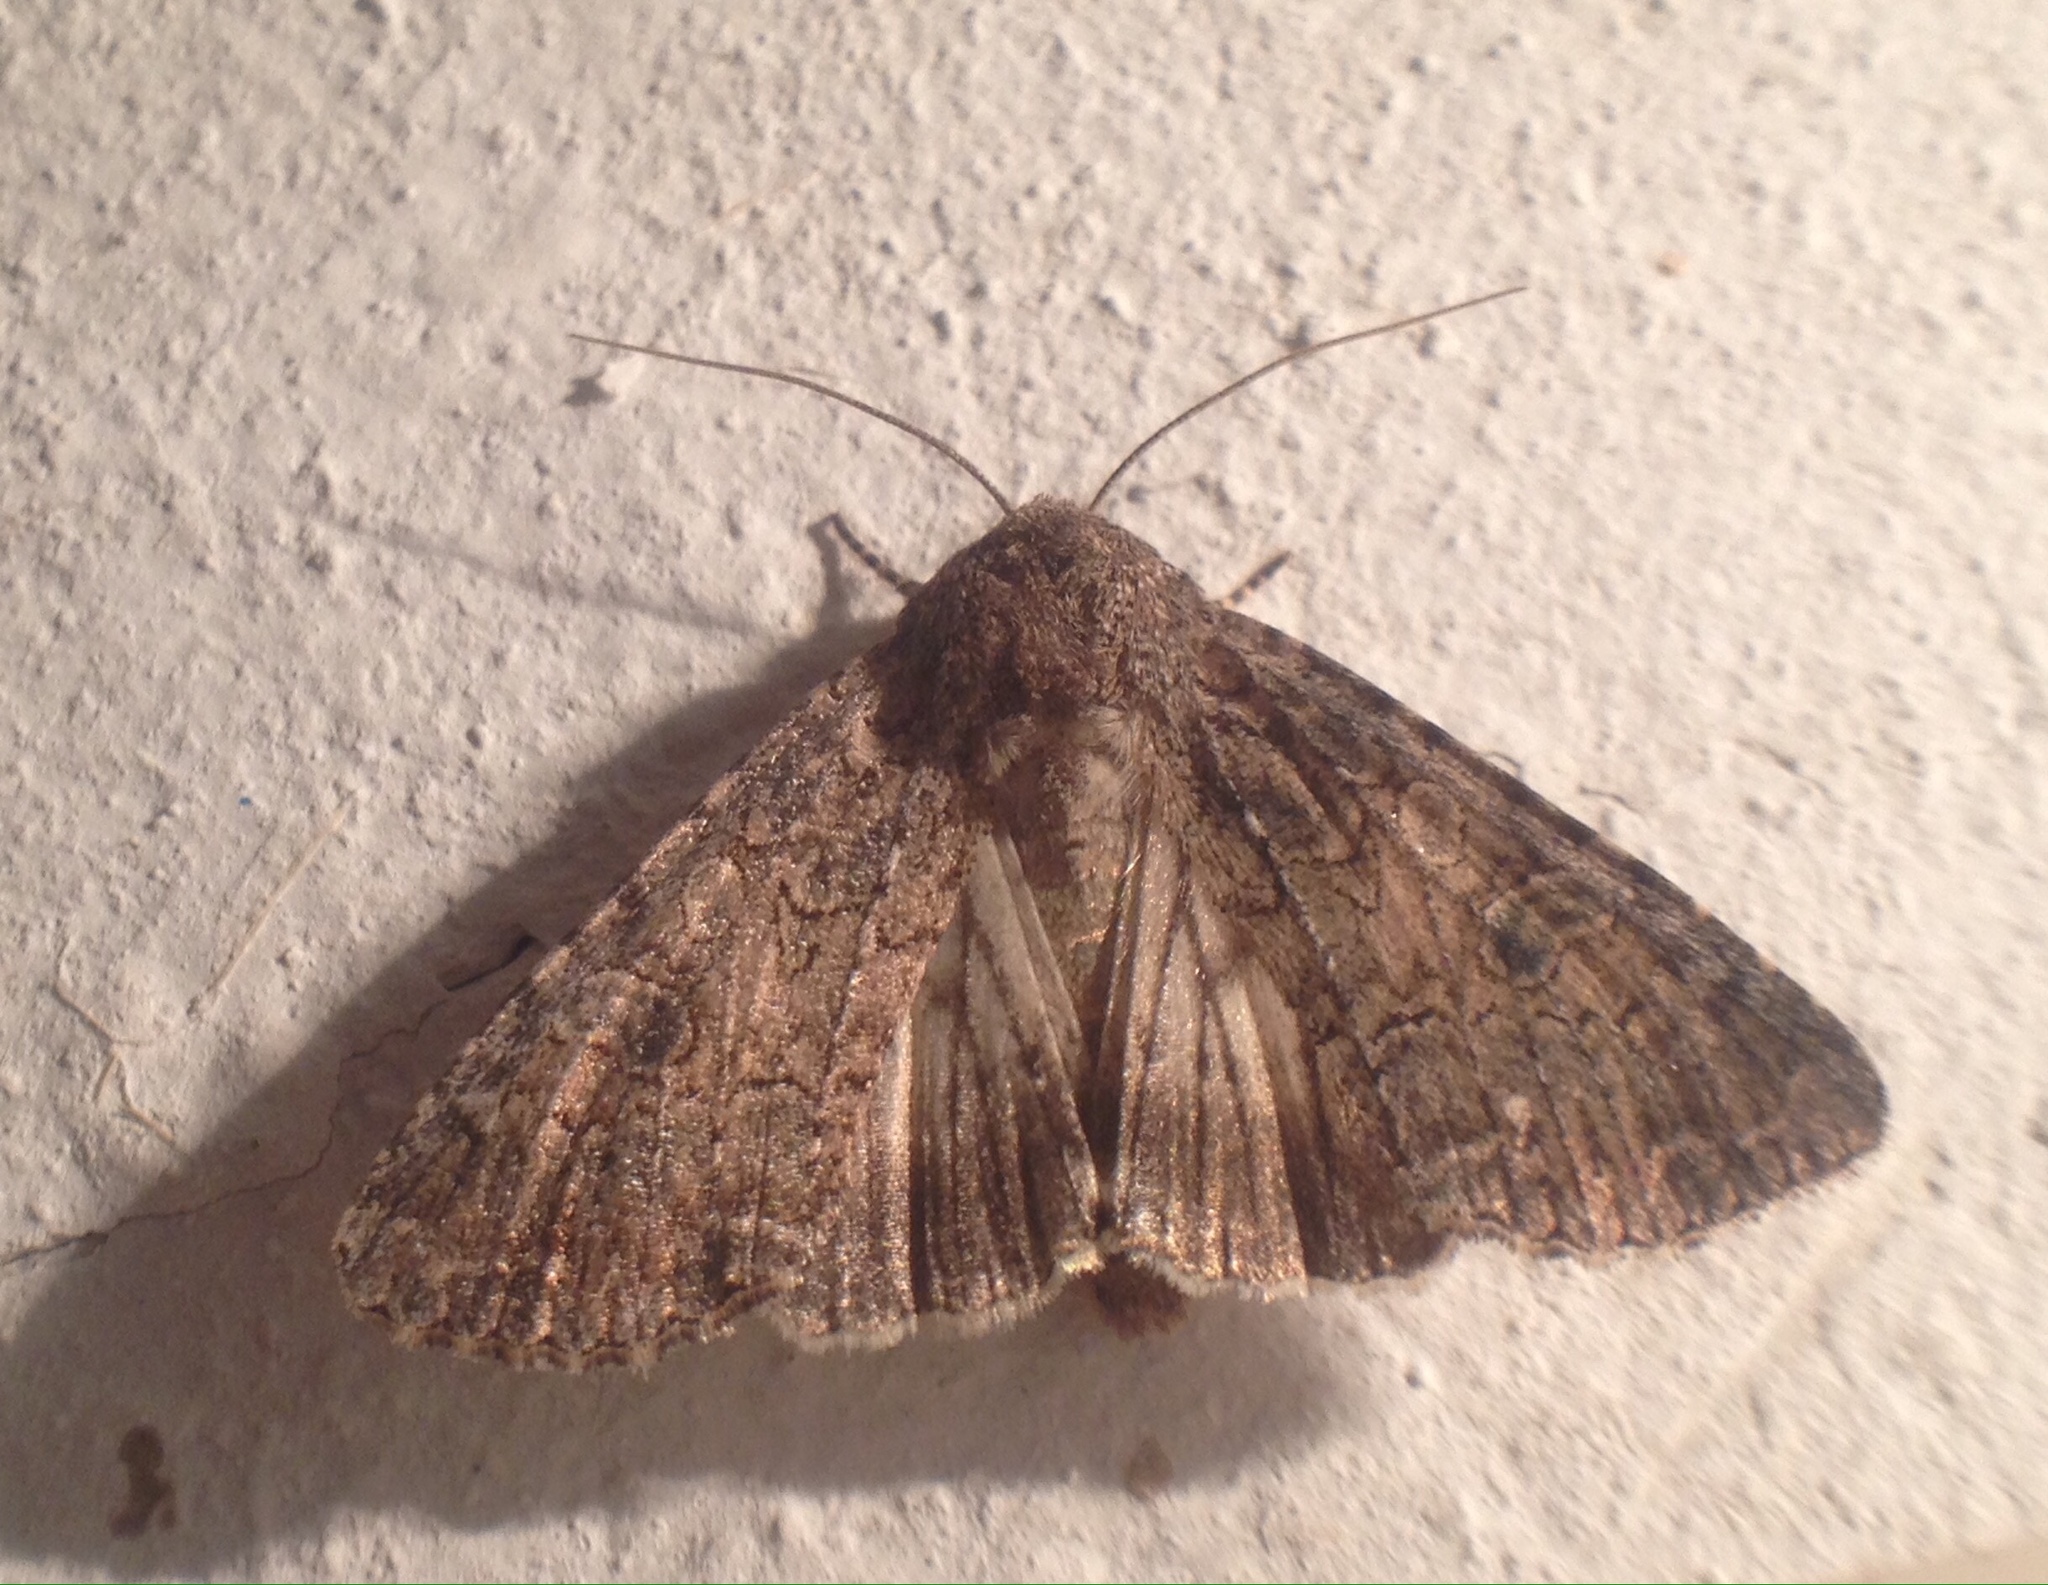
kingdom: Animalia
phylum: Arthropoda
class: Insecta
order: Lepidoptera
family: Noctuidae
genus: Anarta
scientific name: Anarta trifolii
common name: Clover cutworm moth
